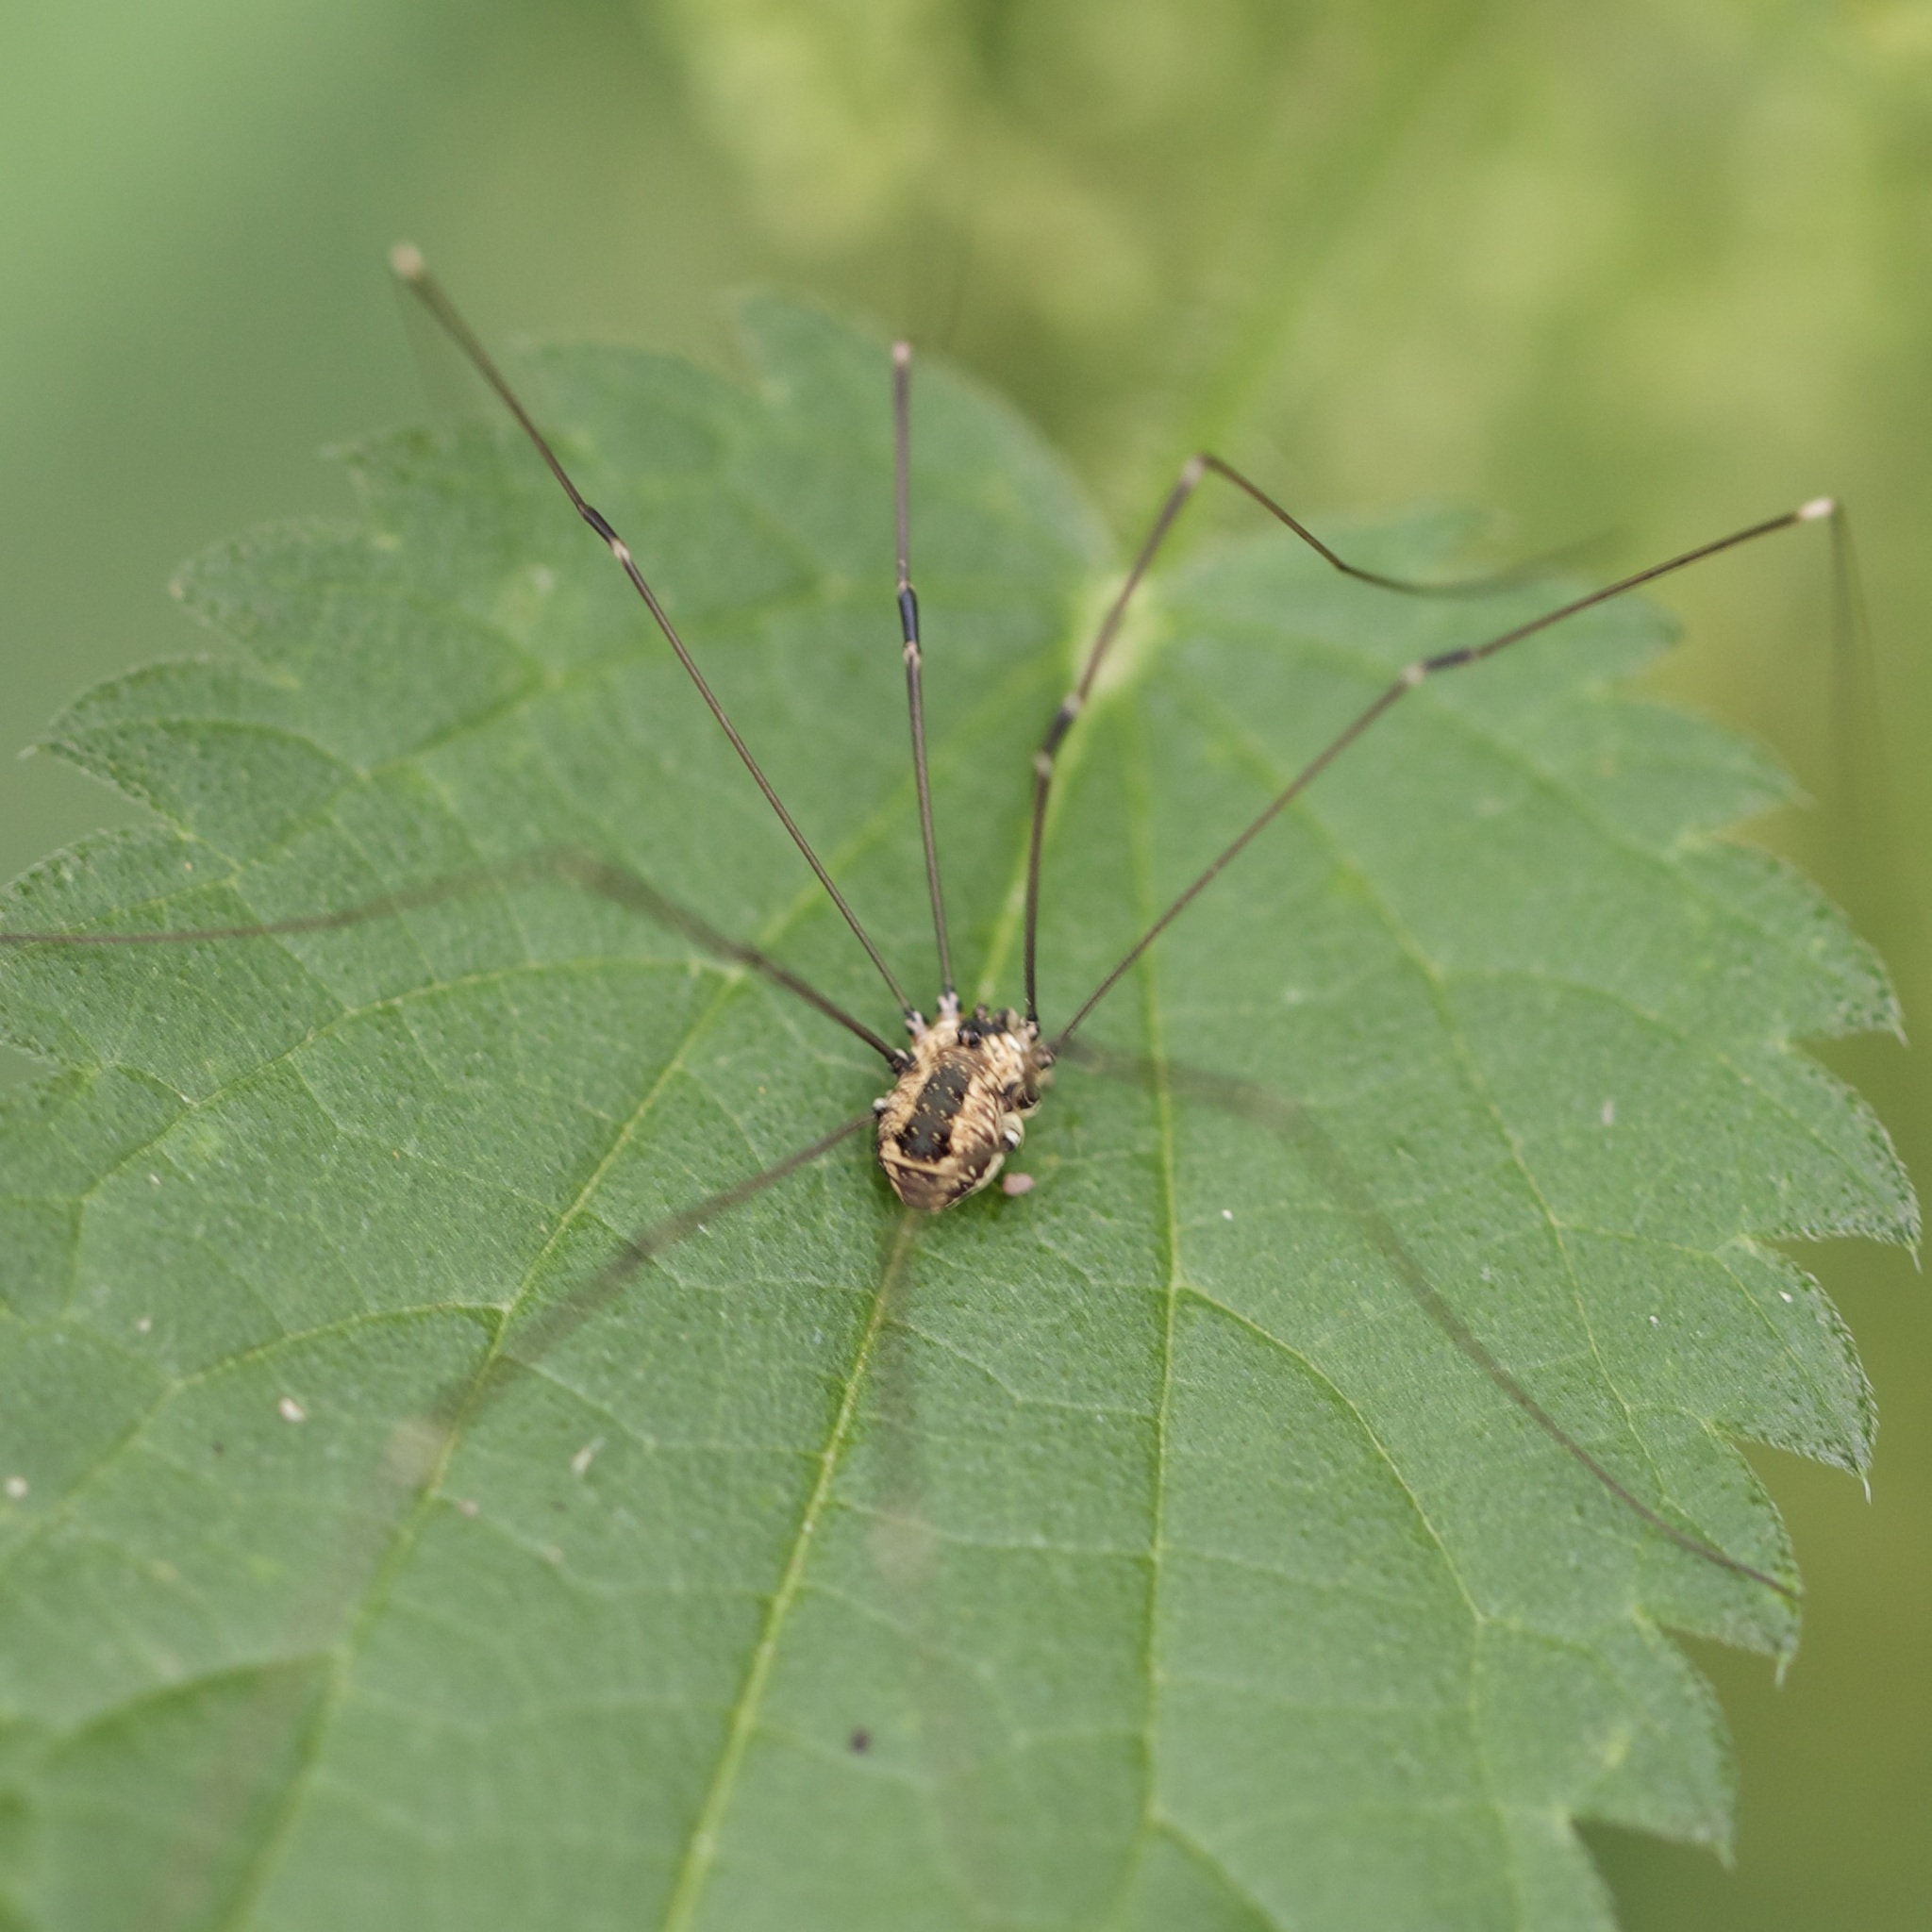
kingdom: Animalia
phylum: Arthropoda
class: Arachnida
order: Opiliones
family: Sclerosomatidae
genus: Leiobunum
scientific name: Leiobunum rotundum
